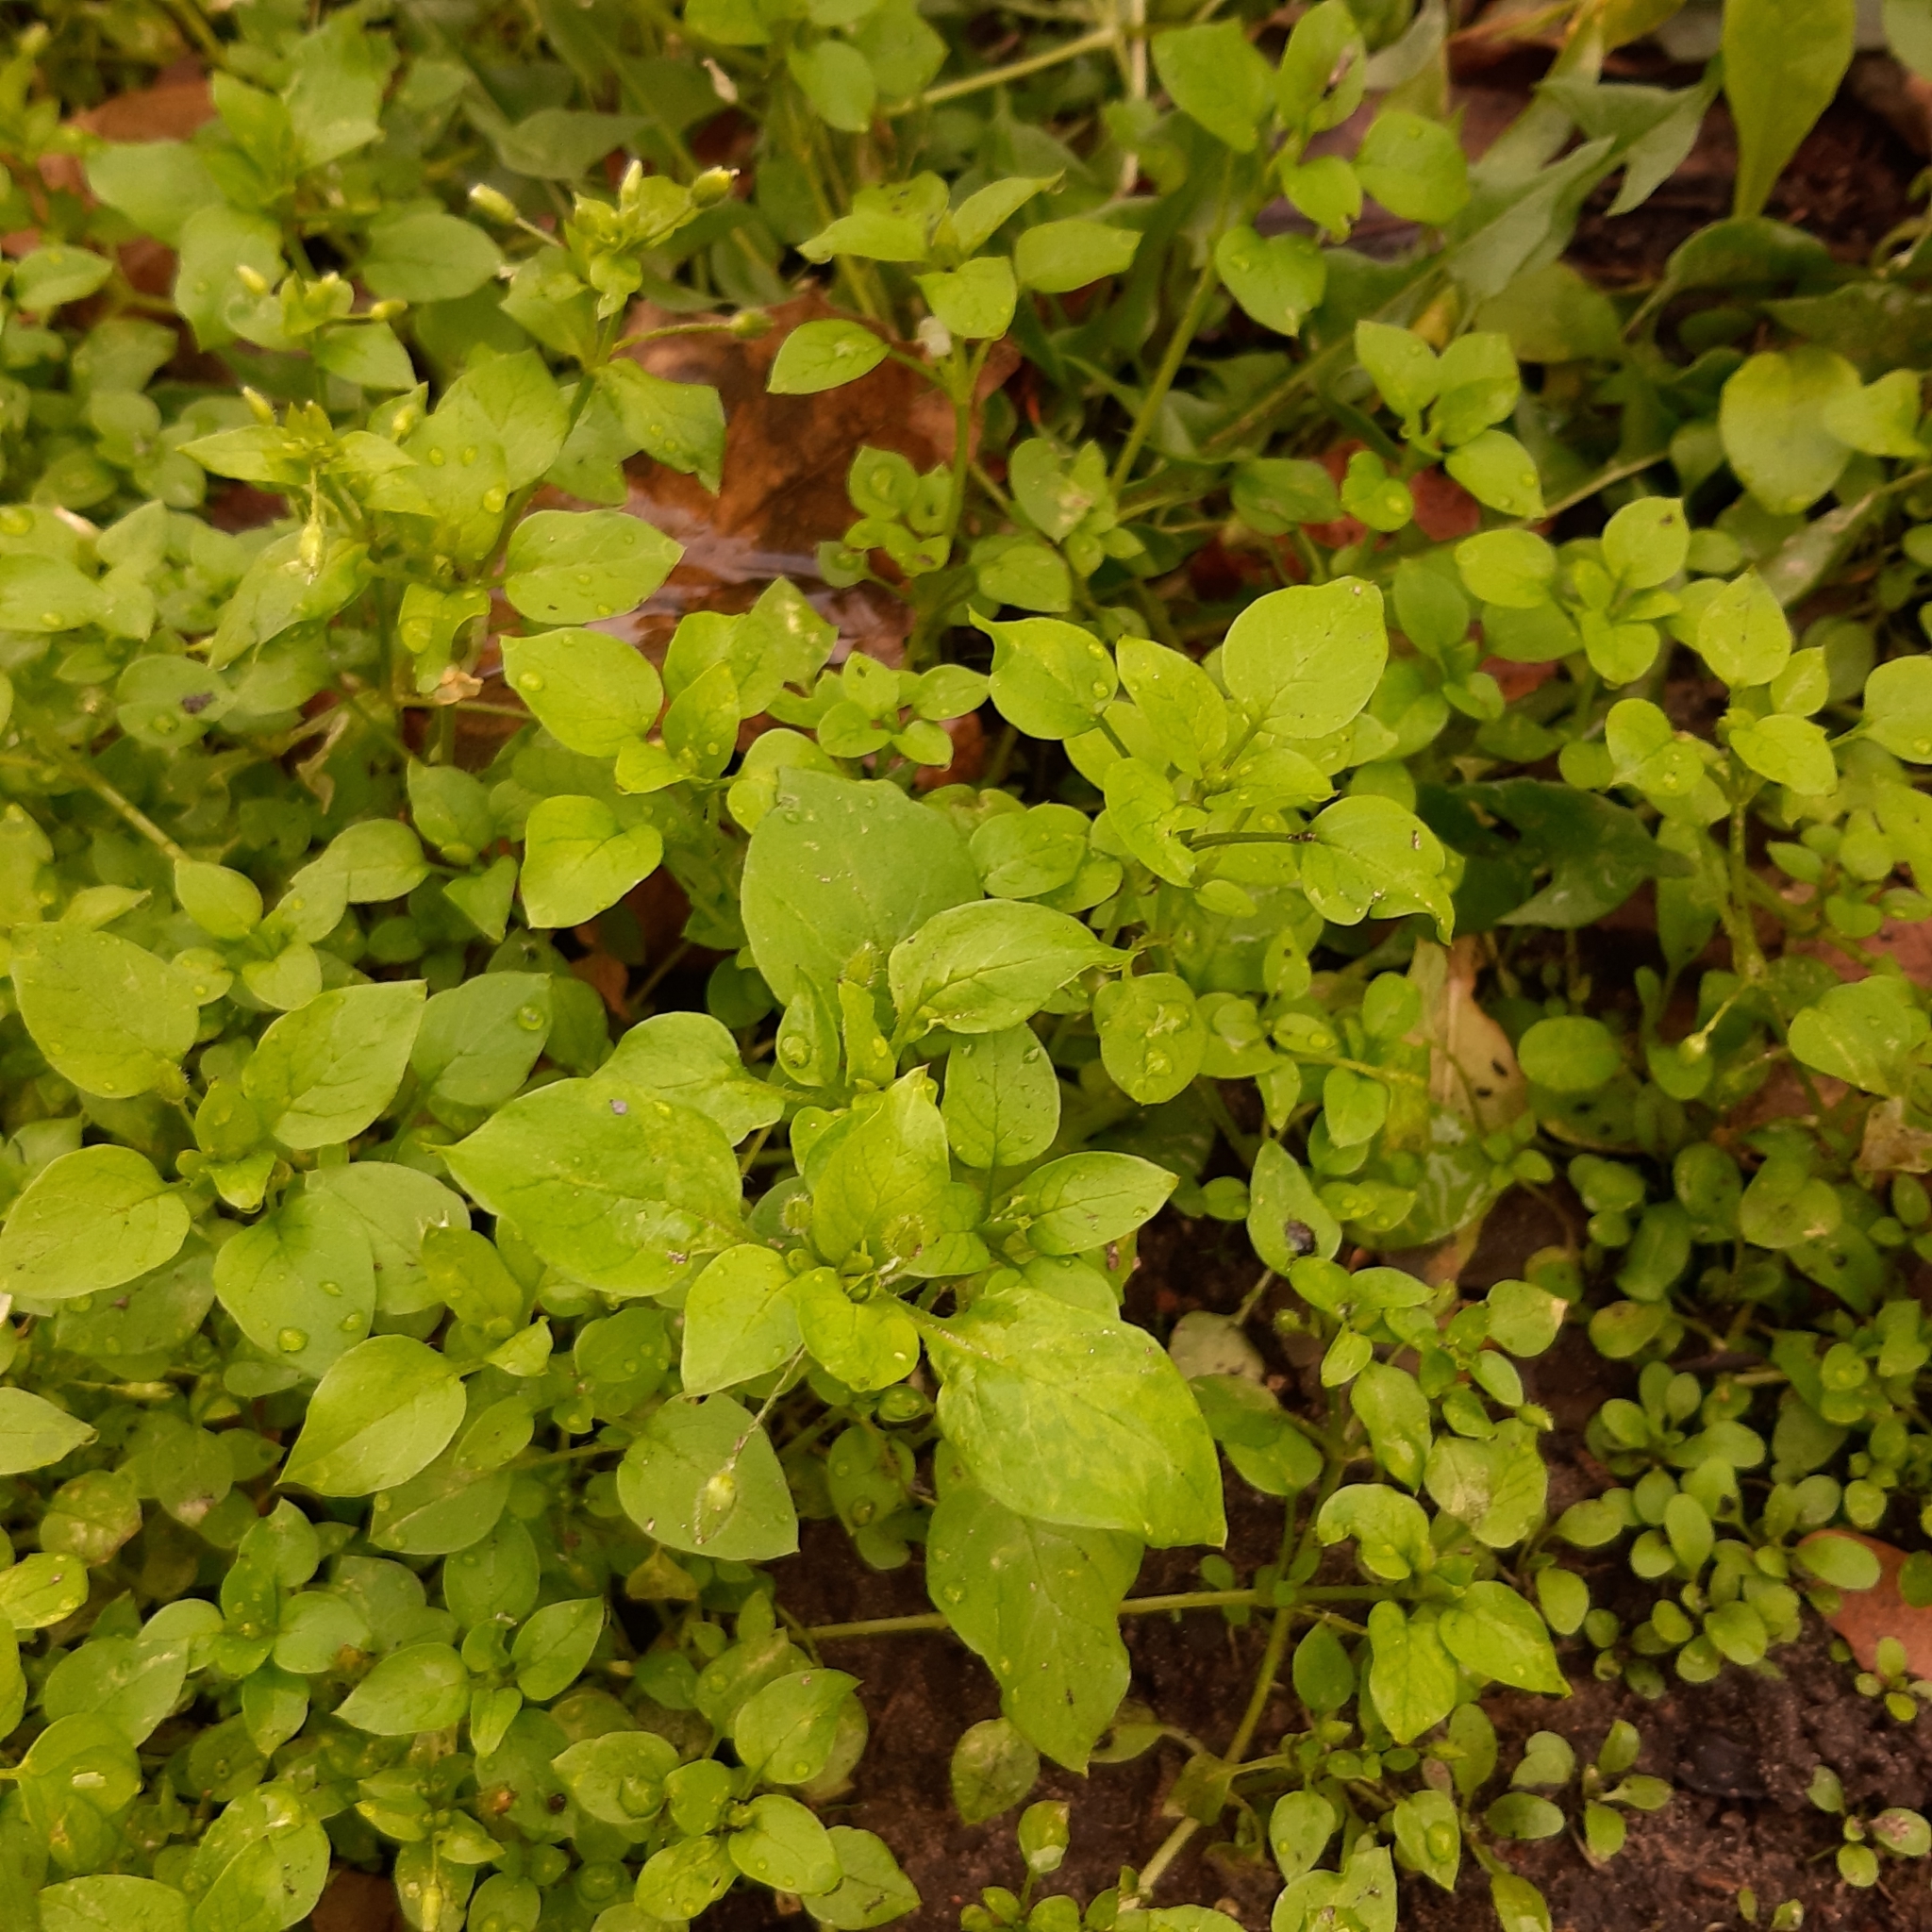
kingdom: Plantae
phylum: Tracheophyta
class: Magnoliopsida
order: Caryophyllales
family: Caryophyllaceae
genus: Stellaria
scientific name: Stellaria media
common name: Common chickweed
